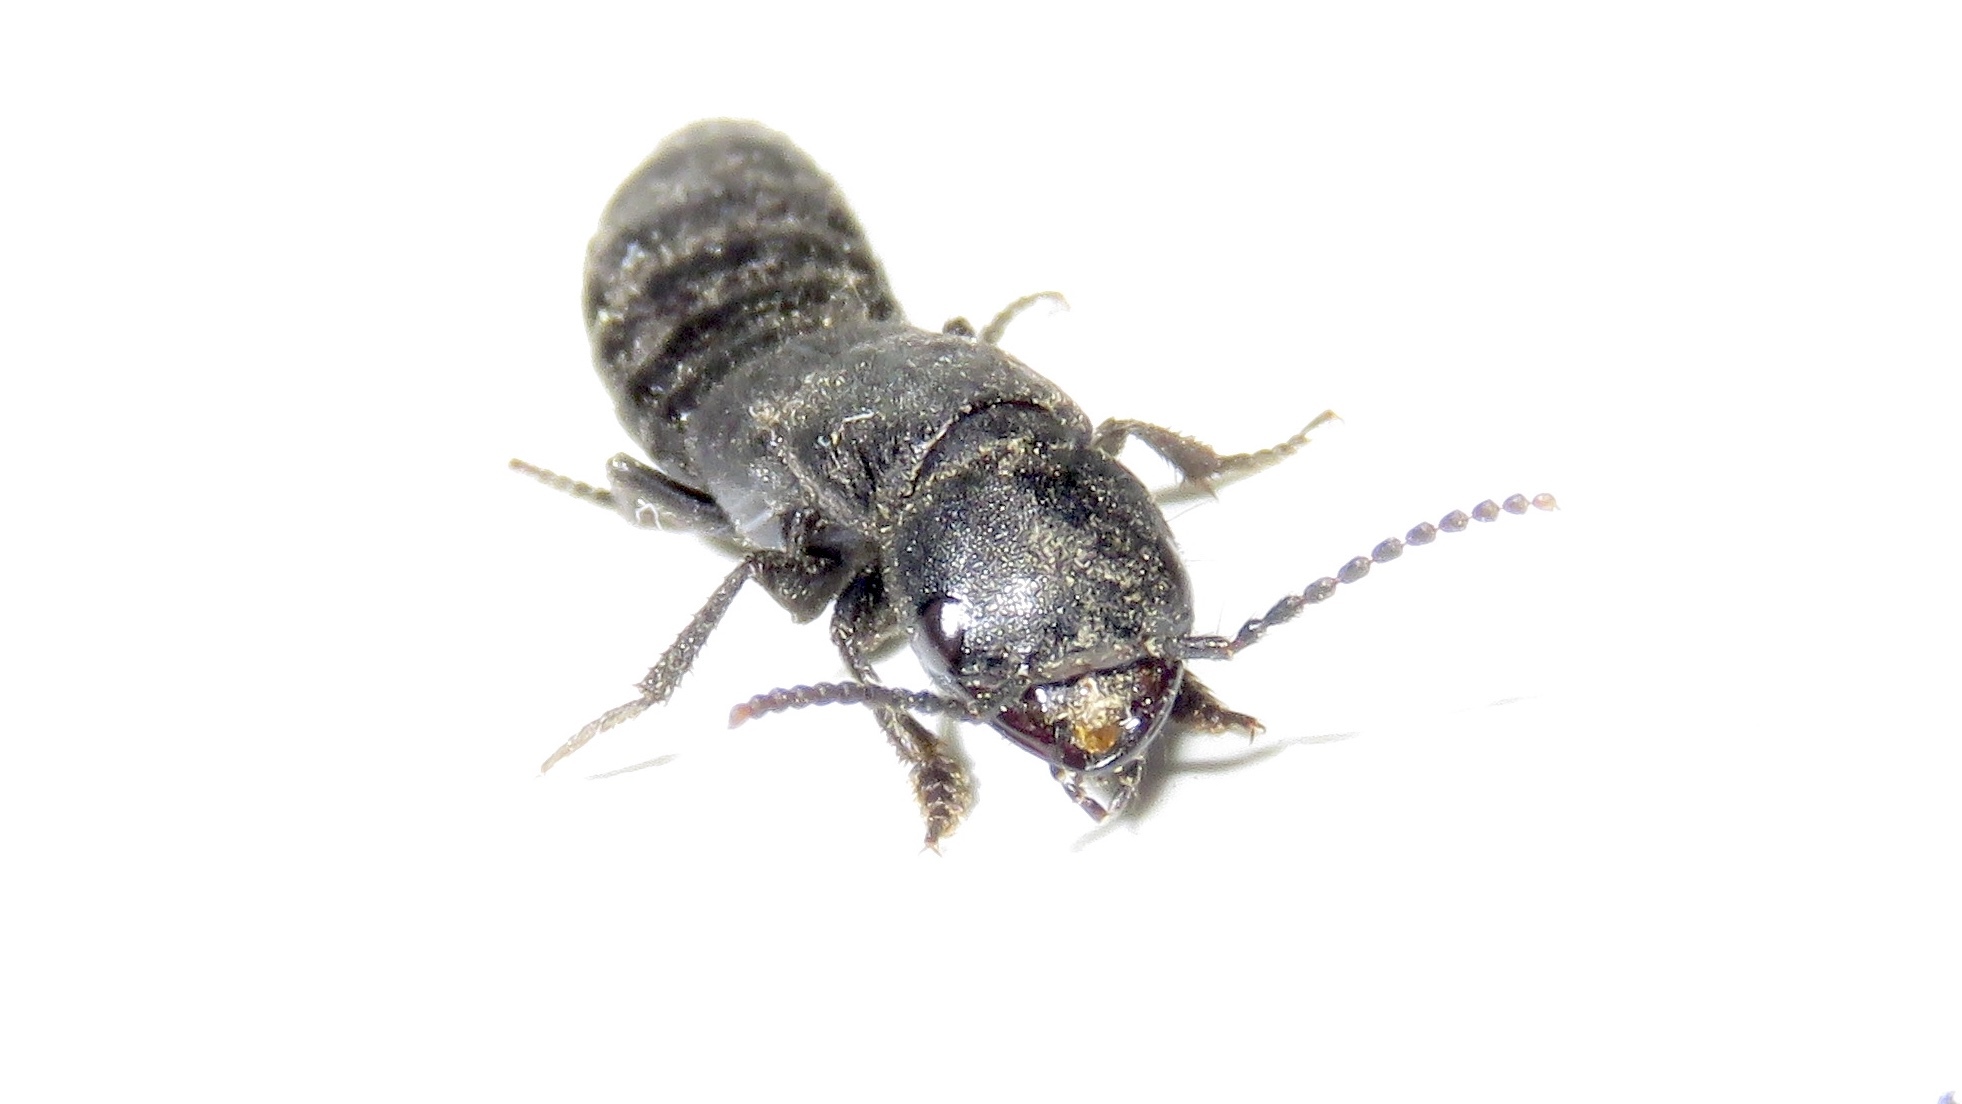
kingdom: Animalia
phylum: Arthropoda
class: Insecta
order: Coleoptera
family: Staphylinidae
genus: Ocypus
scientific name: Ocypus nitens
